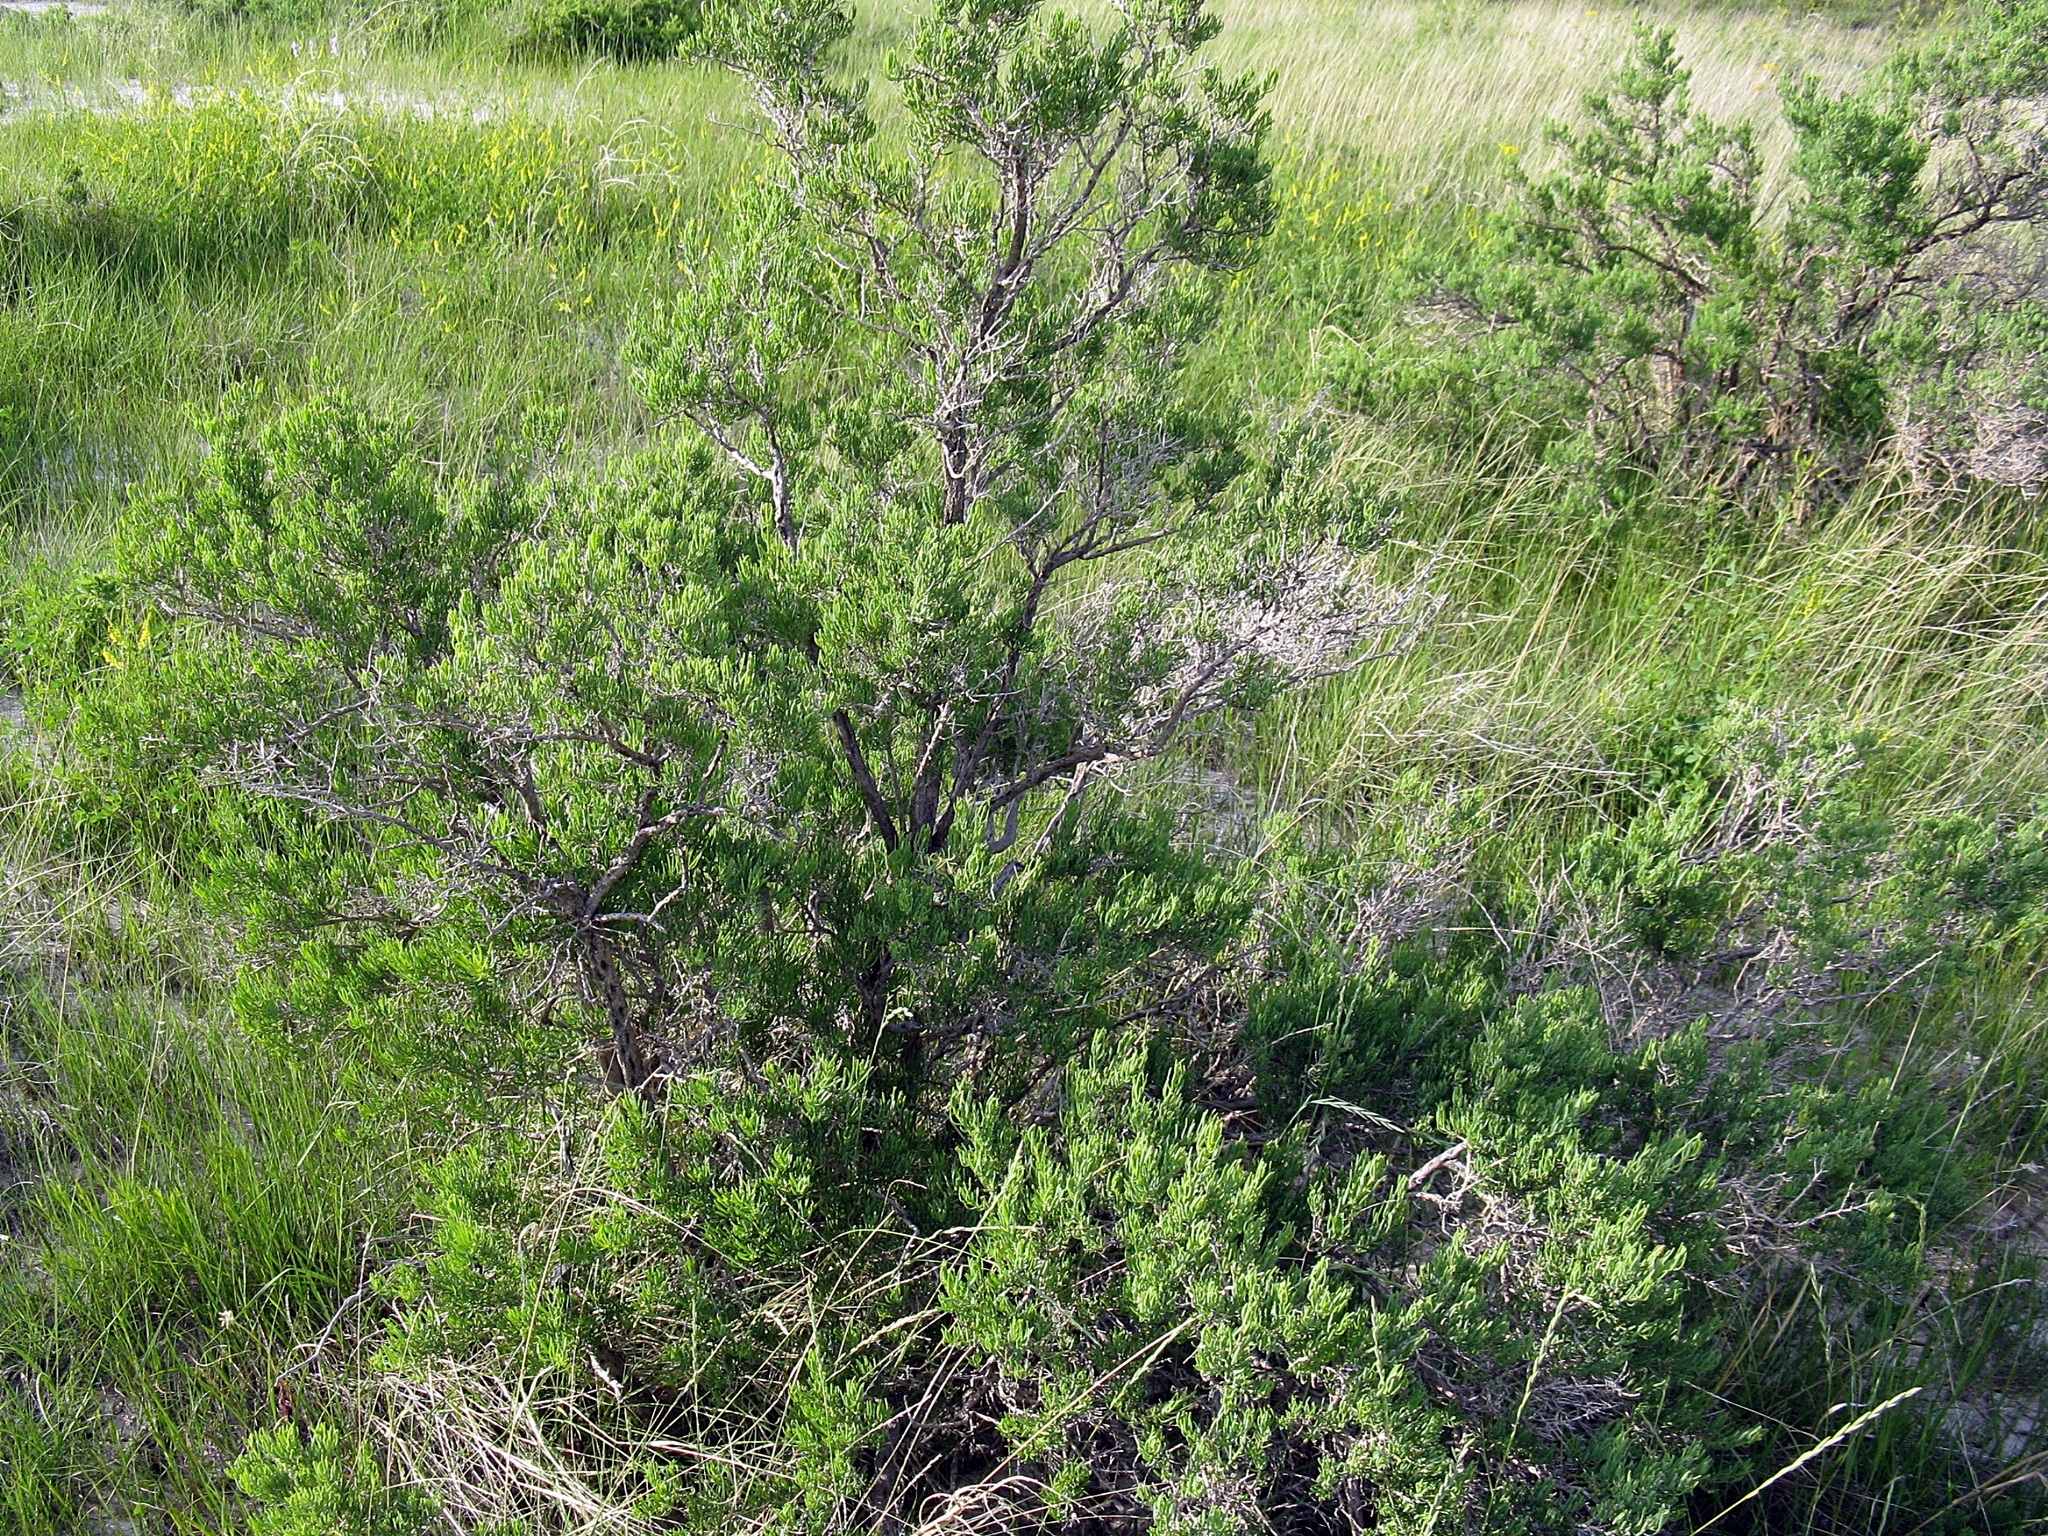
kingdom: Plantae
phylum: Tracheophyta
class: Magnoliopsida
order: Caryophyllales
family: Sarcobataceae
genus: Sarcobatus
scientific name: Sarcobatus vermiculatus
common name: Greasewood
